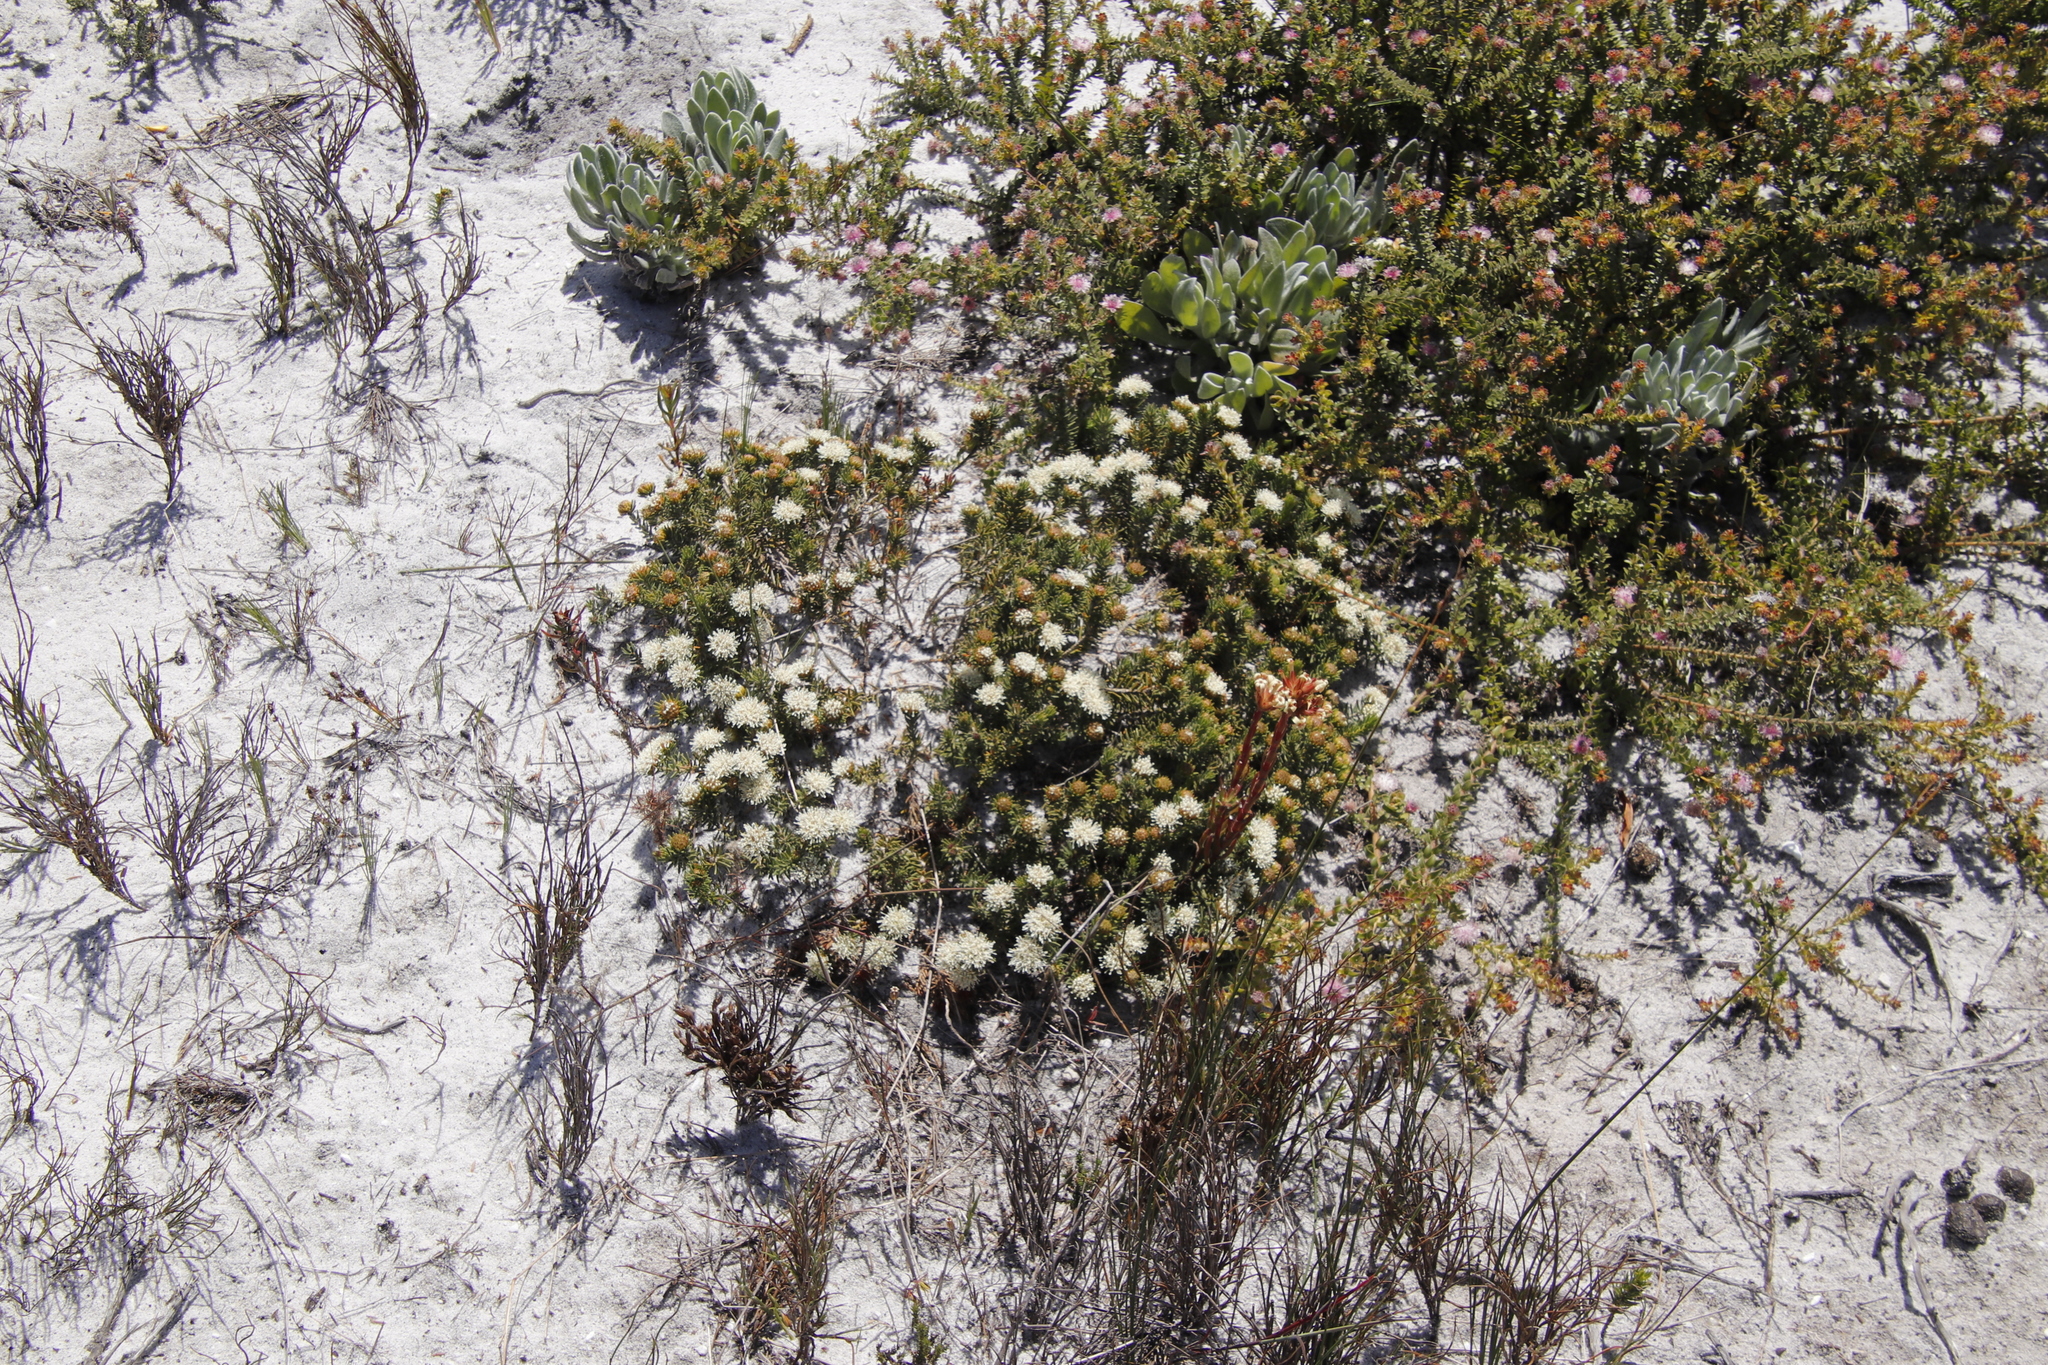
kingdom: Plantae
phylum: Tracheophyta
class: Magnoliopsida
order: Sapindales
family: Rutaceae
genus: Agathosma
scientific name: Agathosma hookeri
